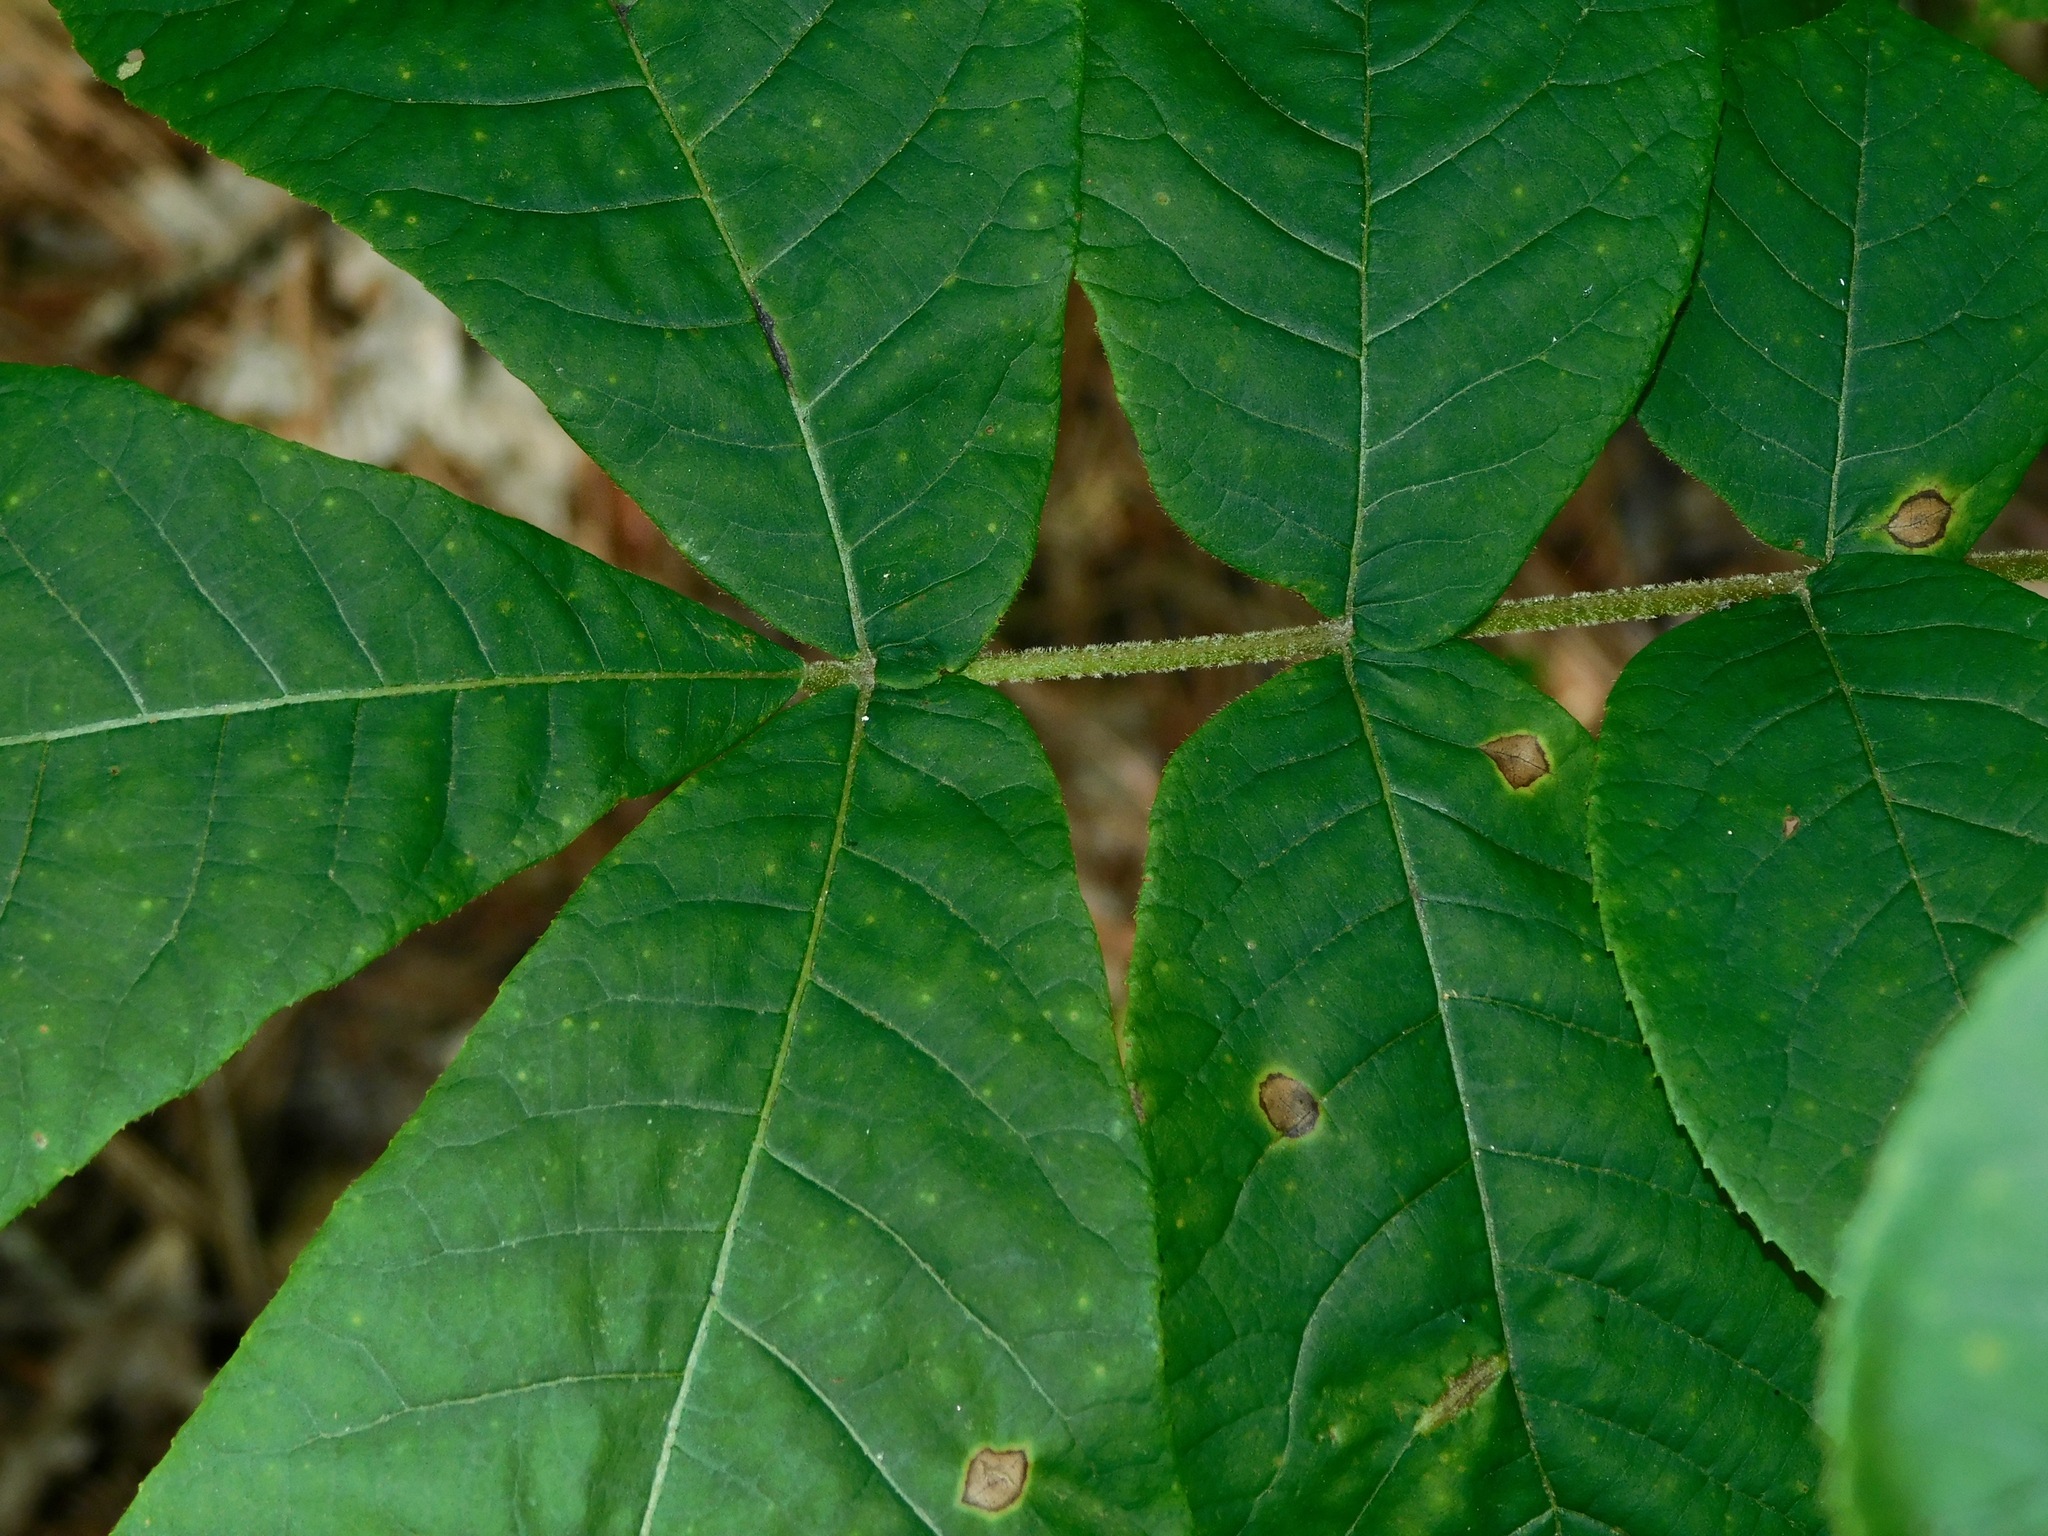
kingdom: Plantae
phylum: Tracheophyta
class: Magnoliopsida
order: Fagales
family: Juglandaceae
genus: Carya
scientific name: Carya alba
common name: Mockernut hickory
